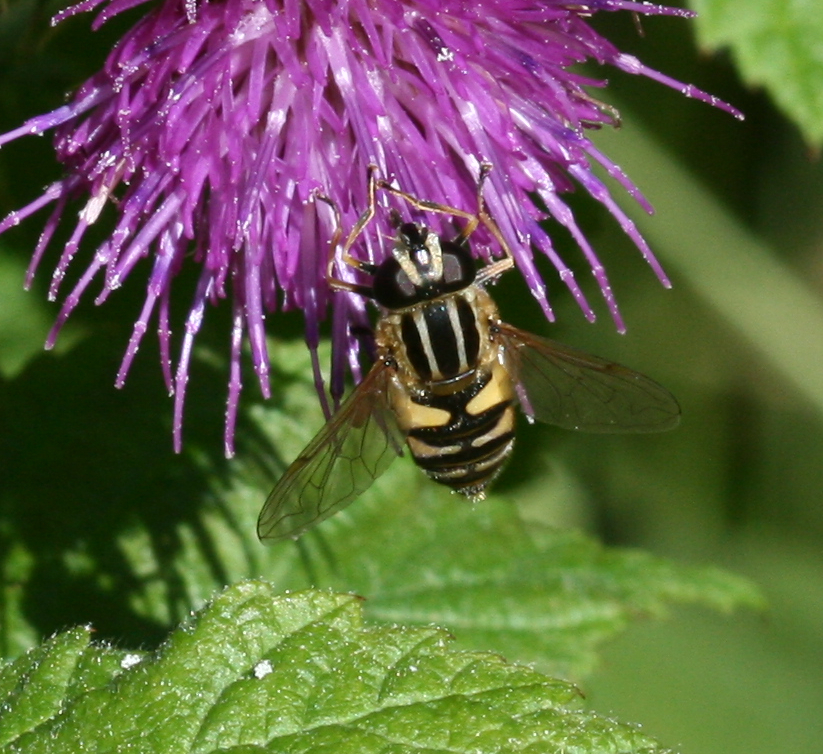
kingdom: Animalia
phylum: Arthropoda
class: Insecta
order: Diptera
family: Syrphidae
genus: Helophilus
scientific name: Helophilus pendulus
